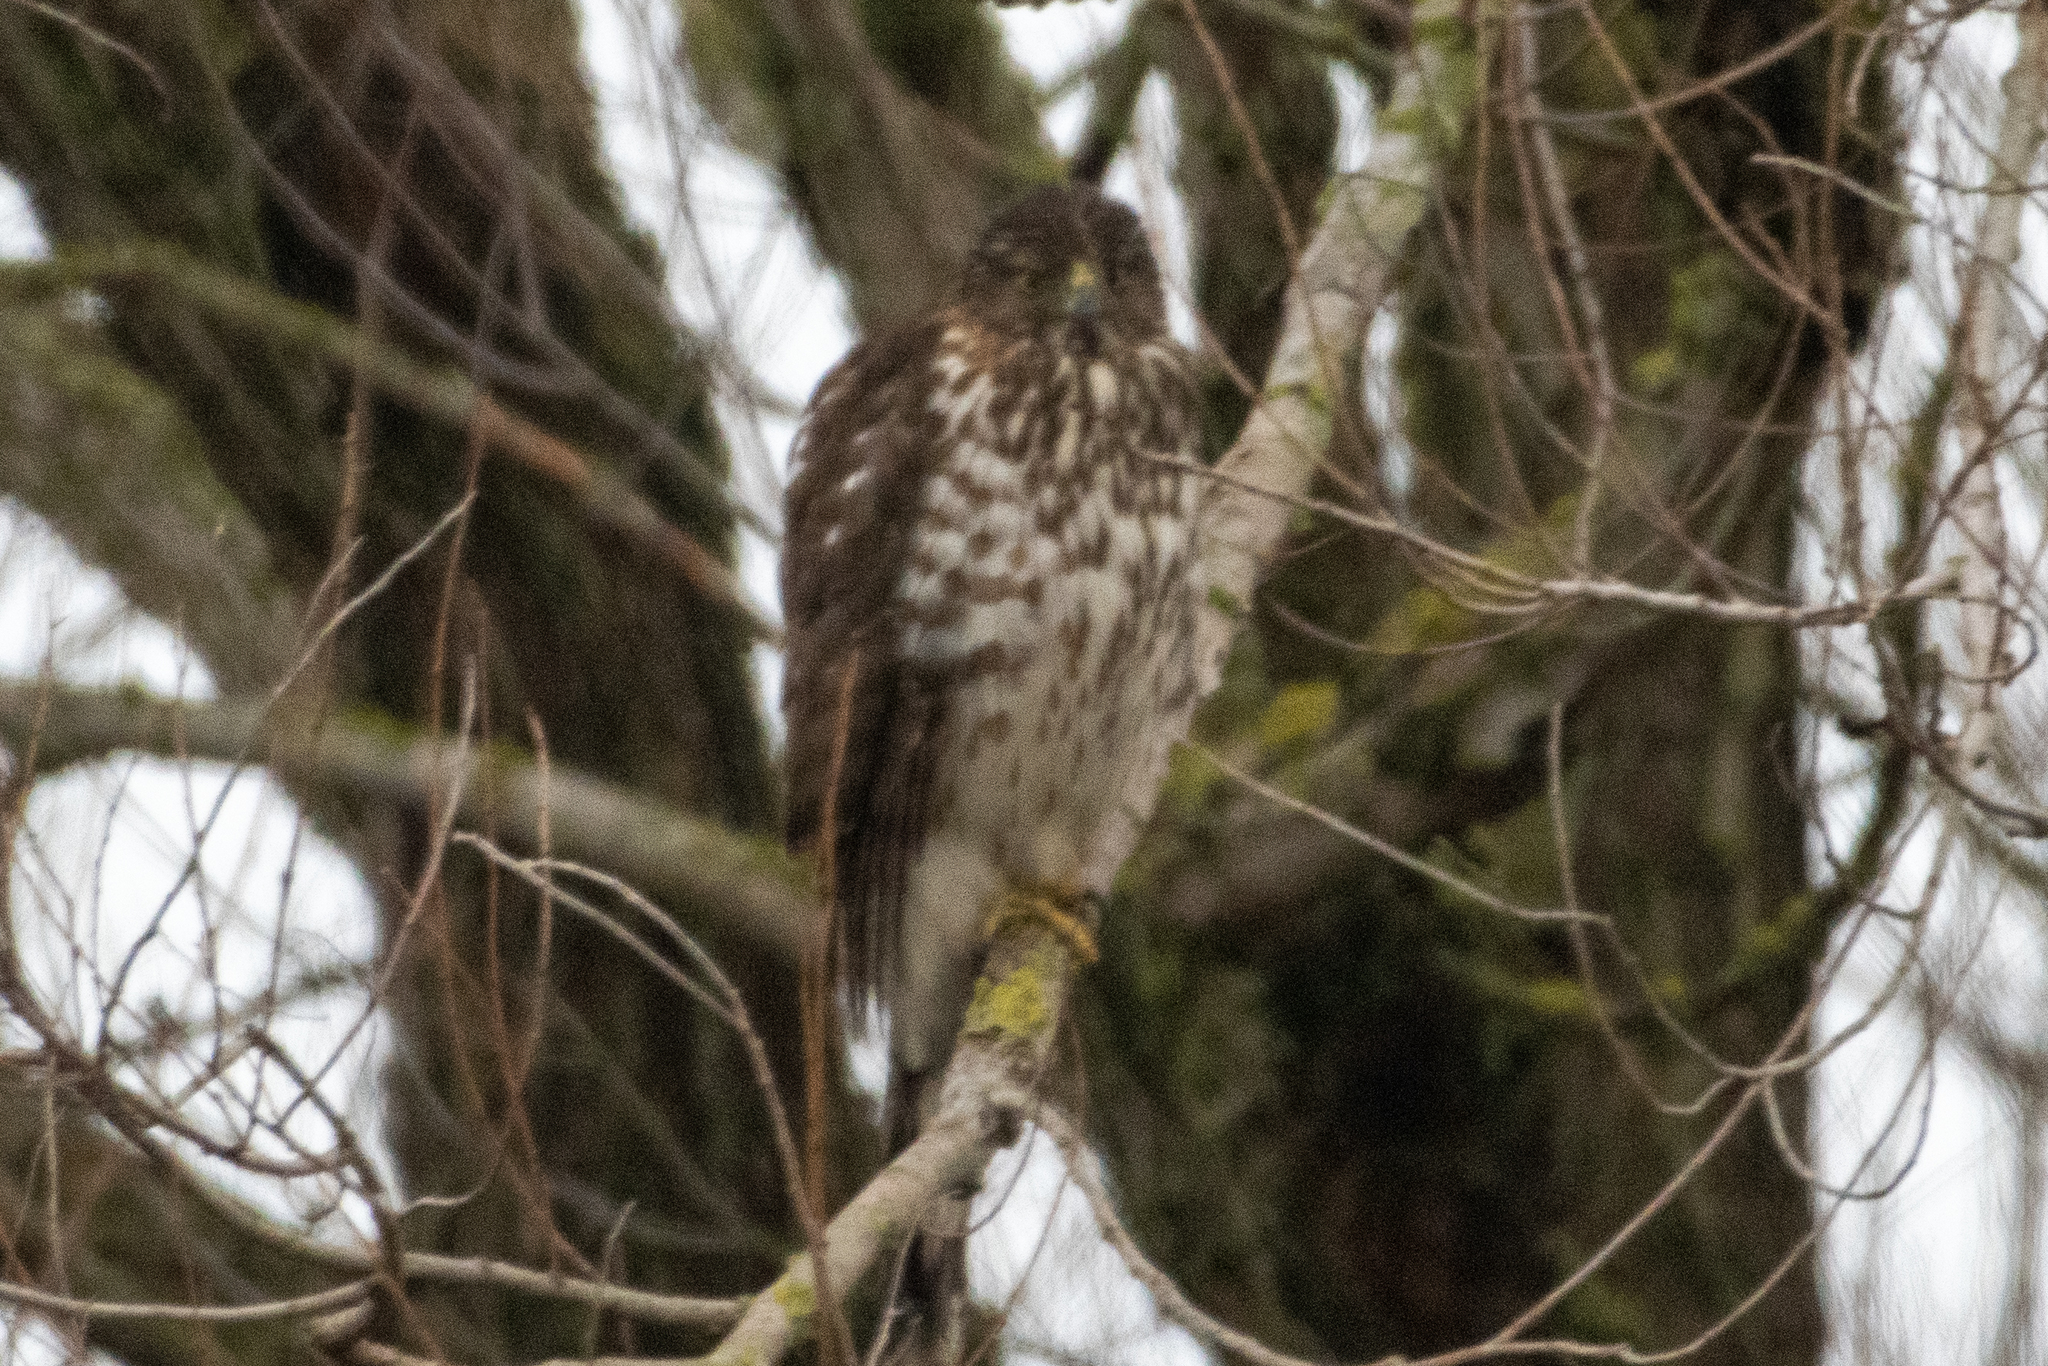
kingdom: Animalia
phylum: Chordata
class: Aves
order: Accipitriformes
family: Accipitridae
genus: Accipiter
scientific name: Accipiter cooperii
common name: Cooper's hawk
